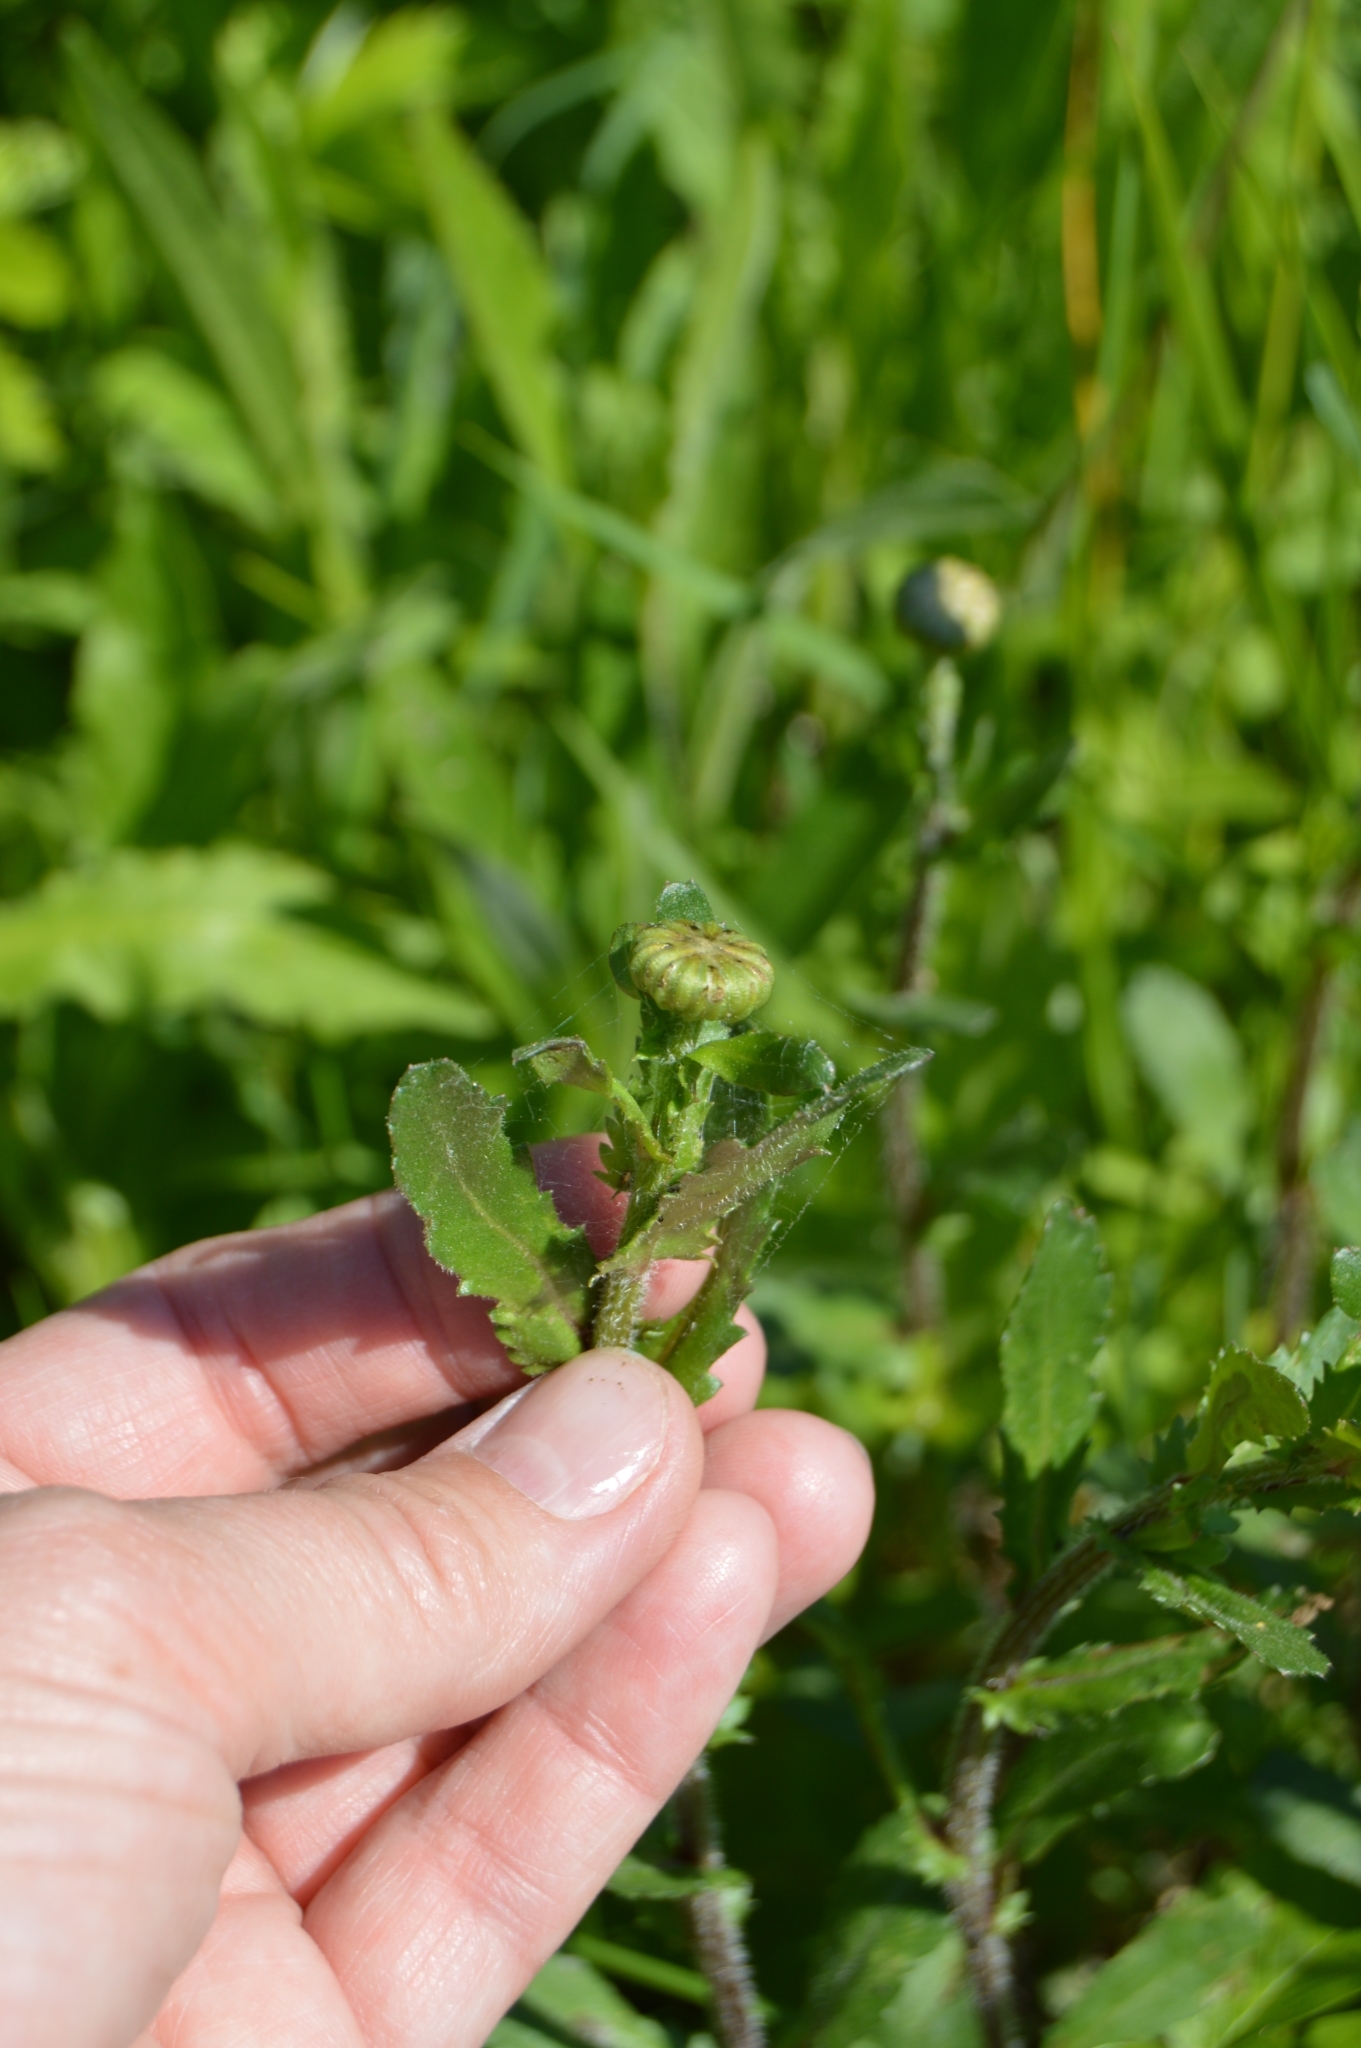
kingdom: Plantae
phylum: Tracheophyta
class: Magnoliopsida
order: Asterales
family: Asteraceae
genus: Leucanthemum
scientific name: Leucanthemum ircutianum
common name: Daisy
